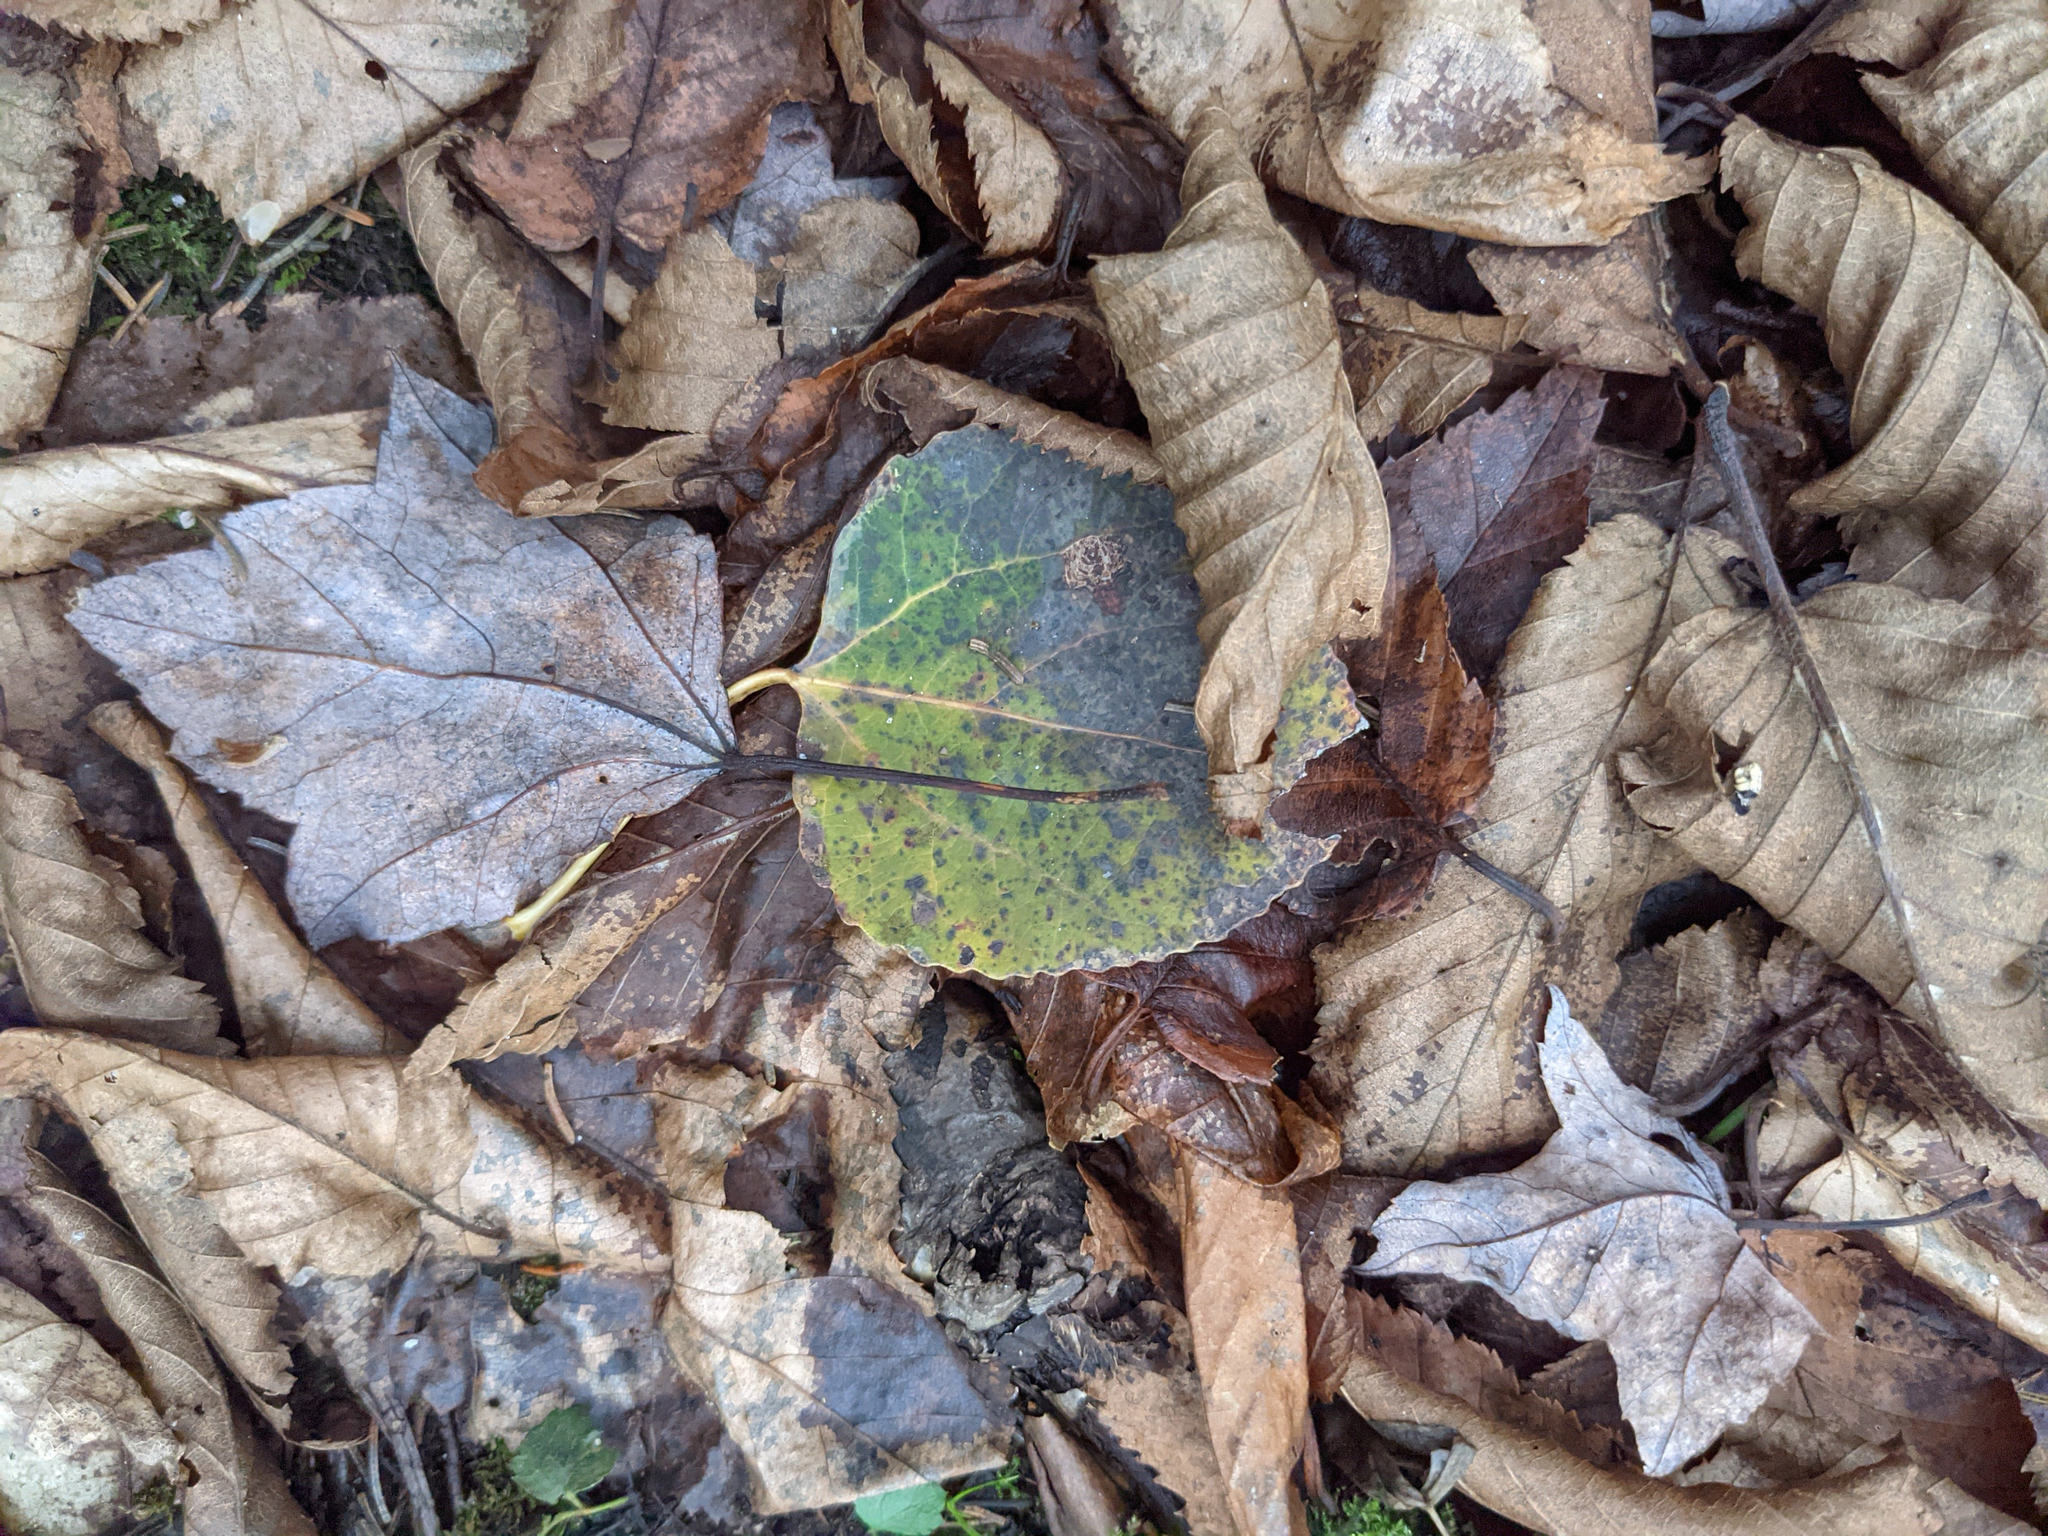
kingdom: Plantae
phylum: Tracheophyta
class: Magnoliopsida
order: Malpighiales
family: Salicaceae
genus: Populus
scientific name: Populus tremuloides
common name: Quaking aspen
